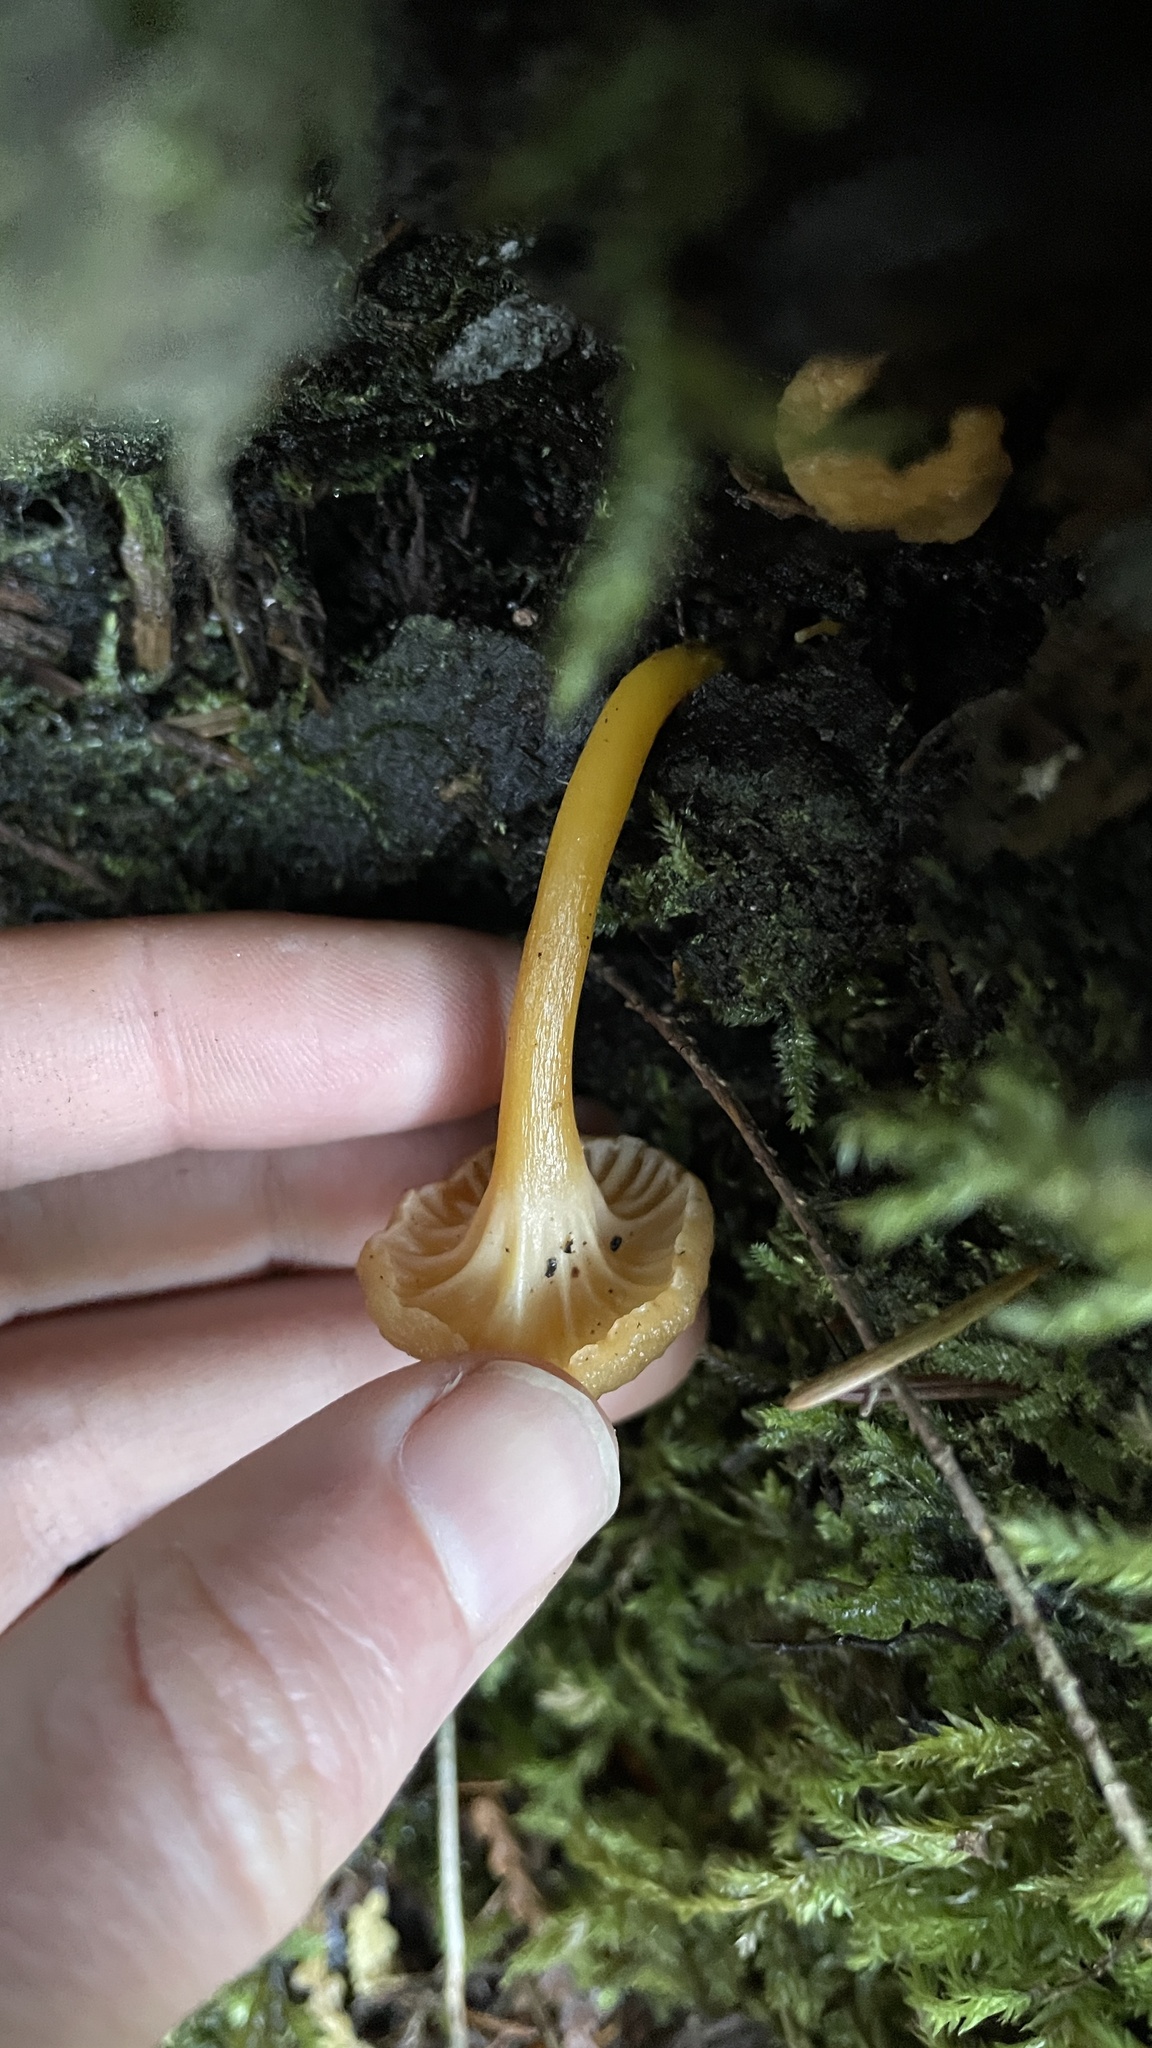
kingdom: Fungi
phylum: Basidiomycota
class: Agaricomycetes
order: Cantharellales
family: Hydnaceae
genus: Craterellus
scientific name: Craterellus tubaeformis
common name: Yellowfoot
